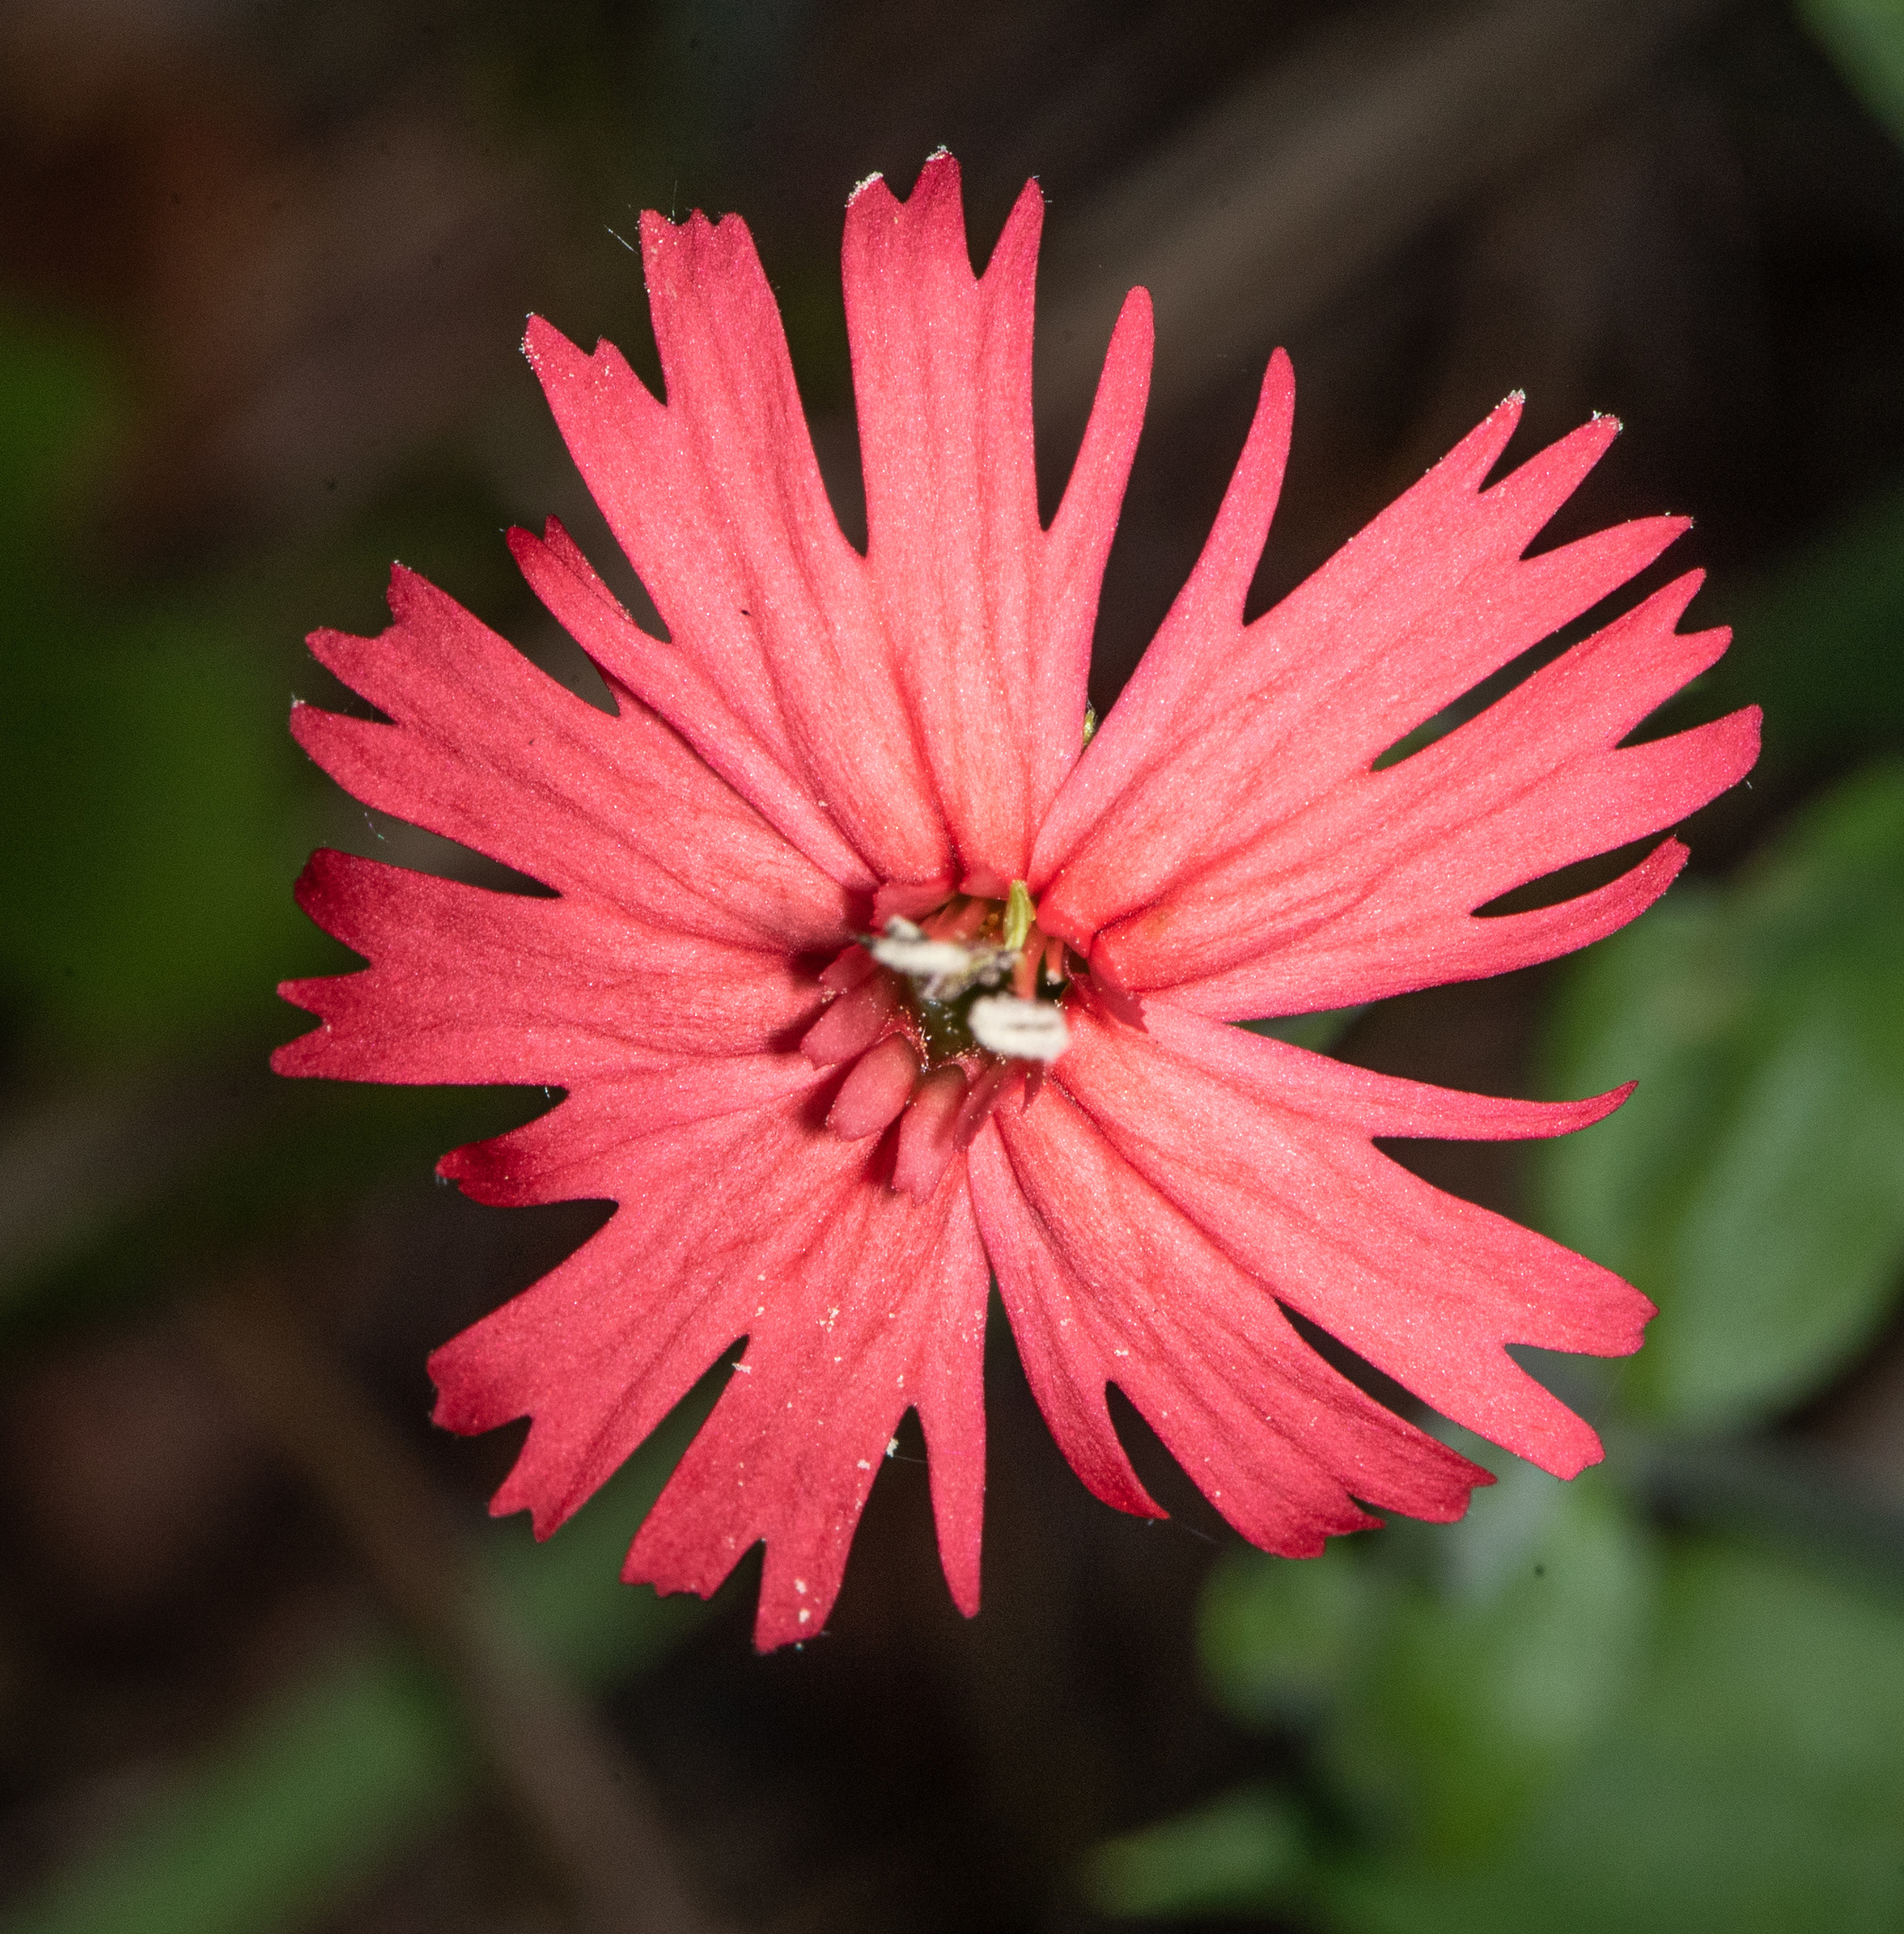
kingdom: Plantae
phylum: Tracheophyta
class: Magnoliopsida
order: Caryophyllales
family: Caryophyllaceae
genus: Silene
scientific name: Silene laciniata
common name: Indian-pink
